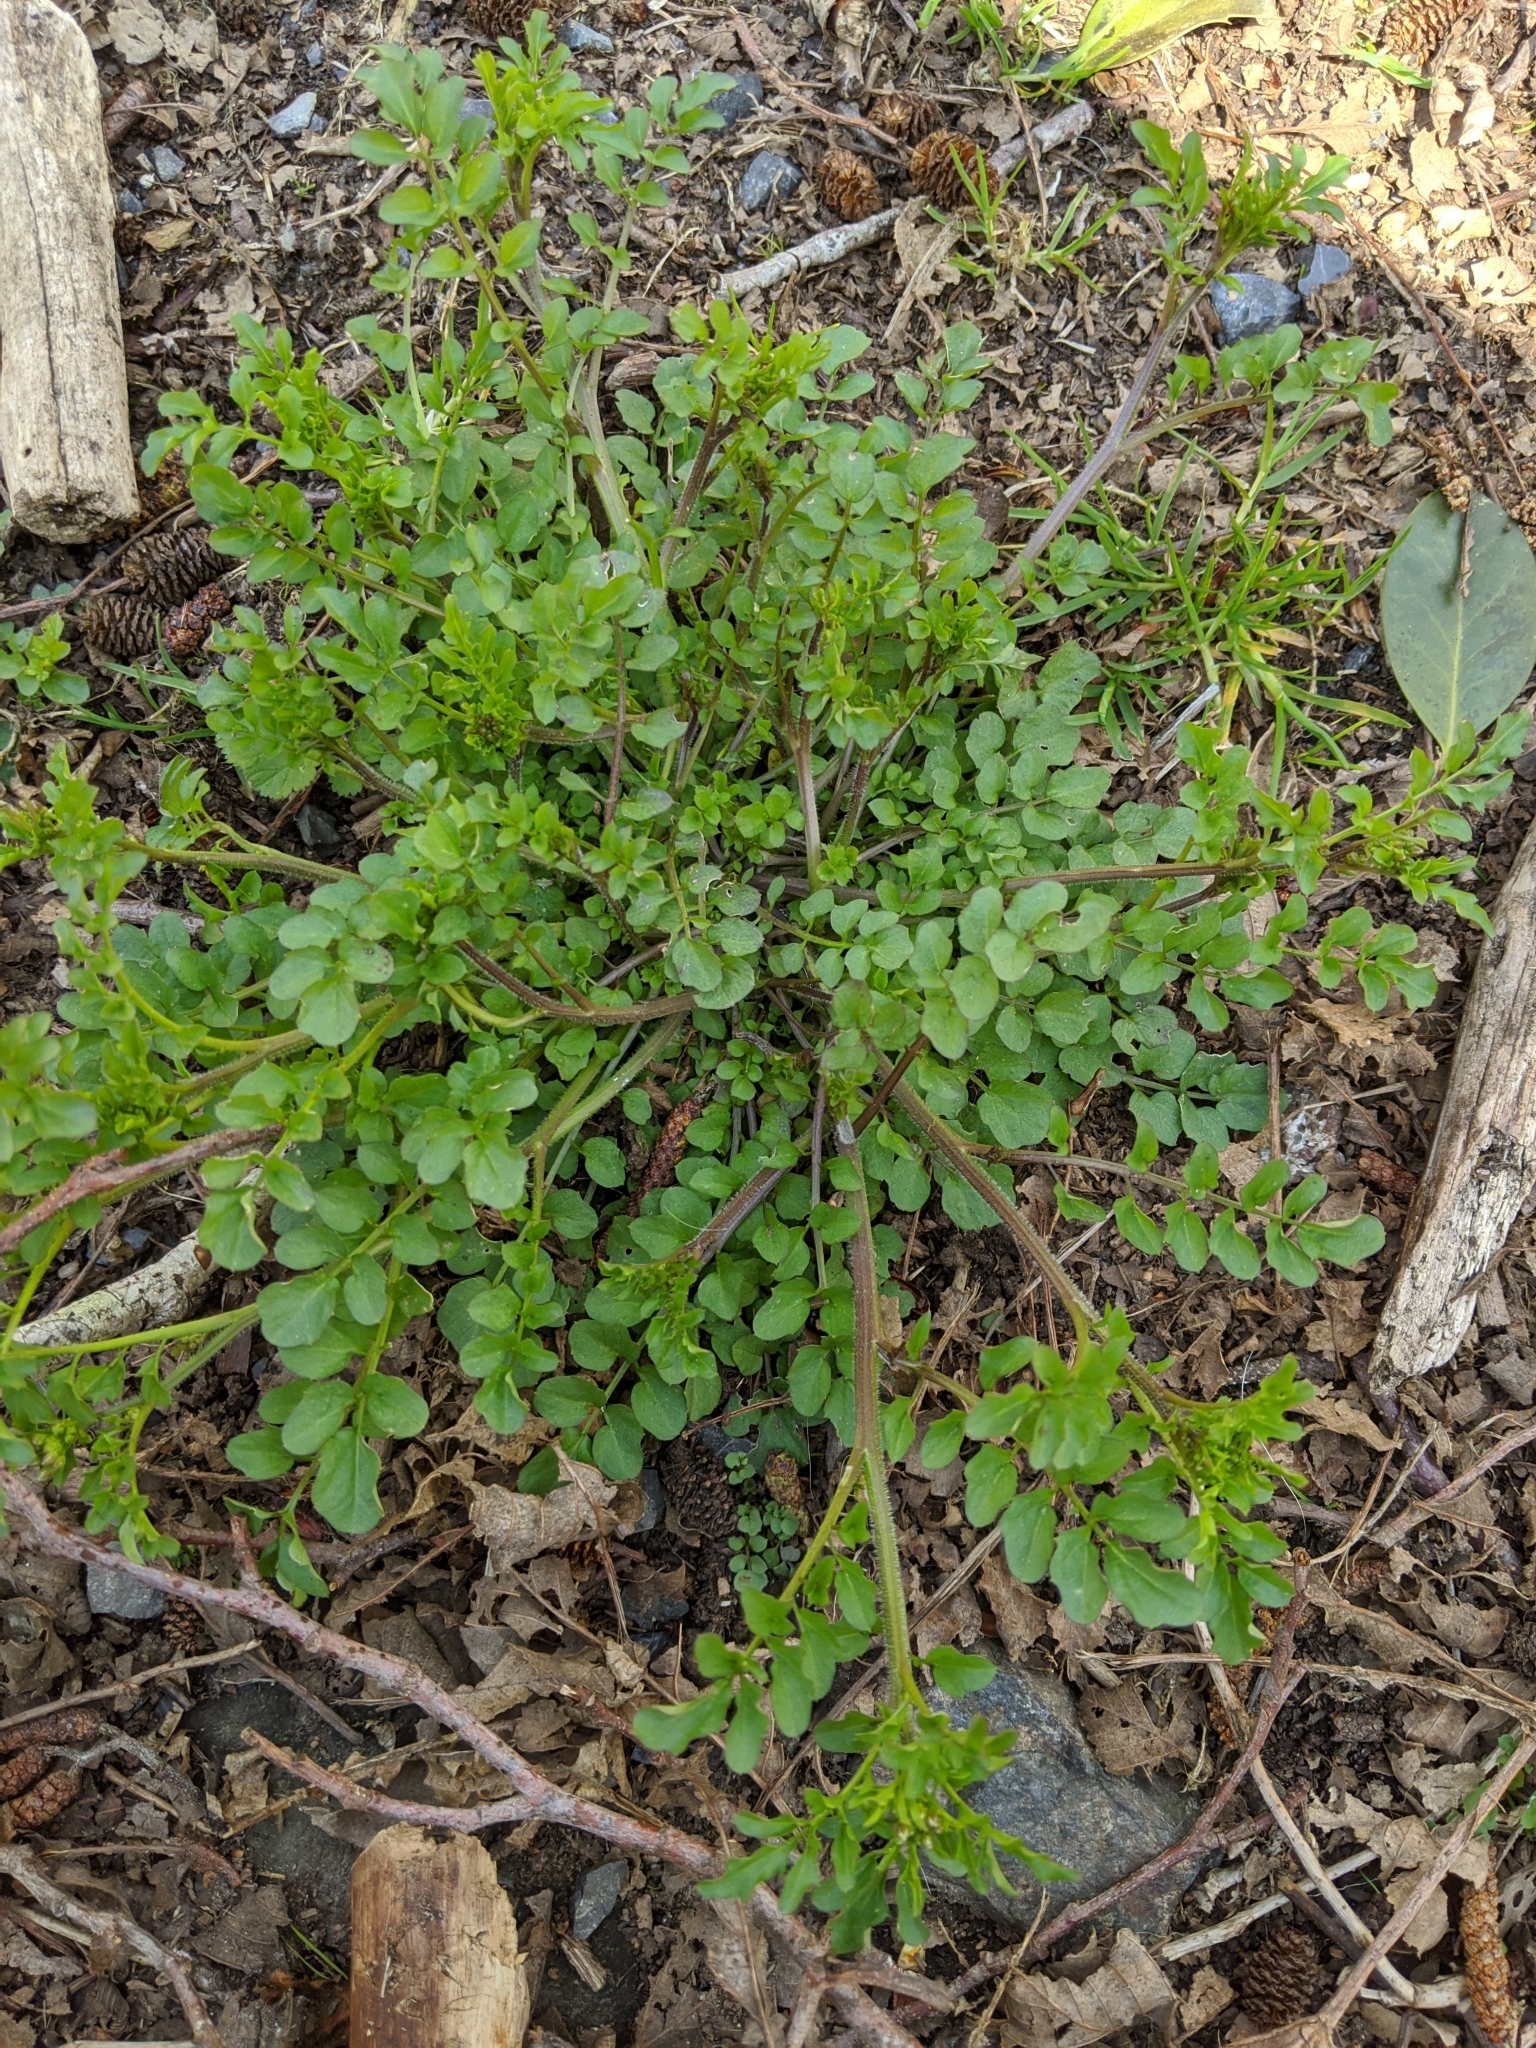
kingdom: Plantae
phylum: Tracheophyta
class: Magnoliopsida
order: Brassicales
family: Brassicaceae
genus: Cardamine
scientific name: Cardamine flexuosa
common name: Woodland bittercress
